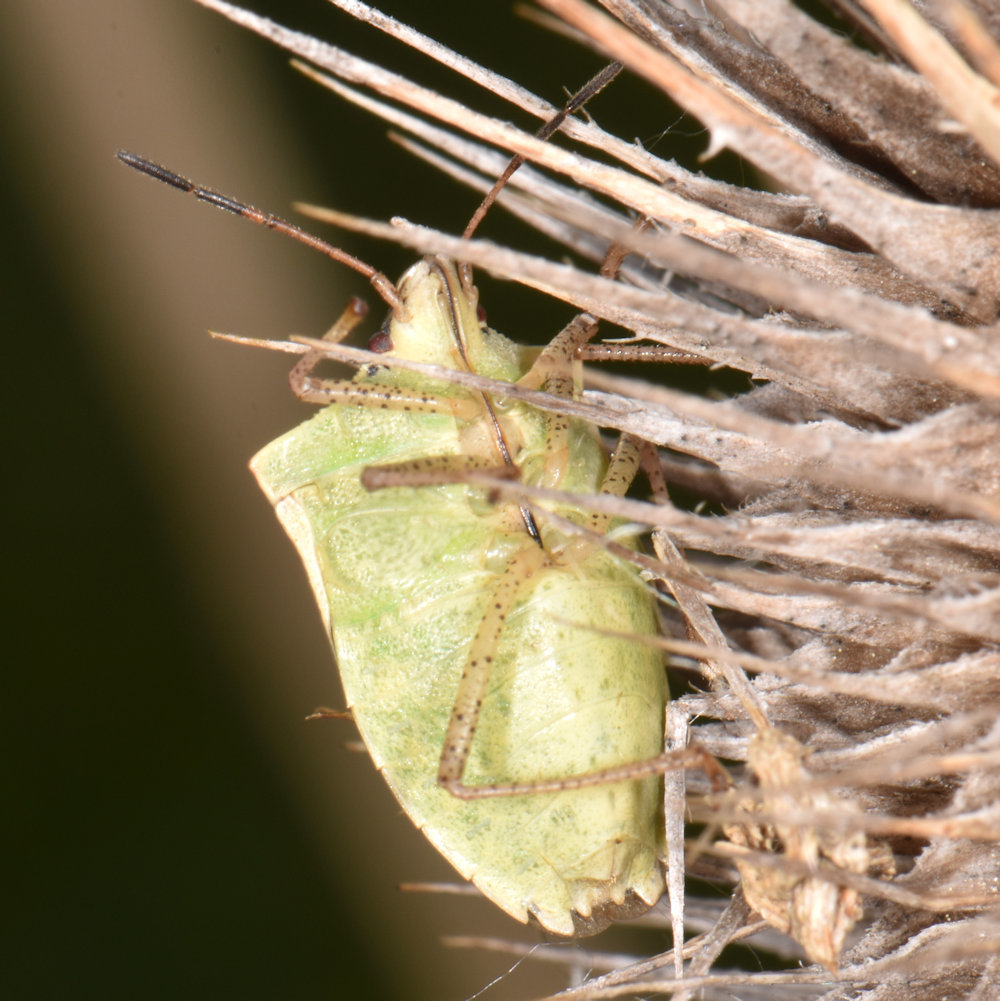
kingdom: Animalia
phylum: Arthropoda
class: Insecta
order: Hemiptera
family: Pentatomidae
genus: Euschistus
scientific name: Euschistus variolarius
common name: Onespotted stink bug
